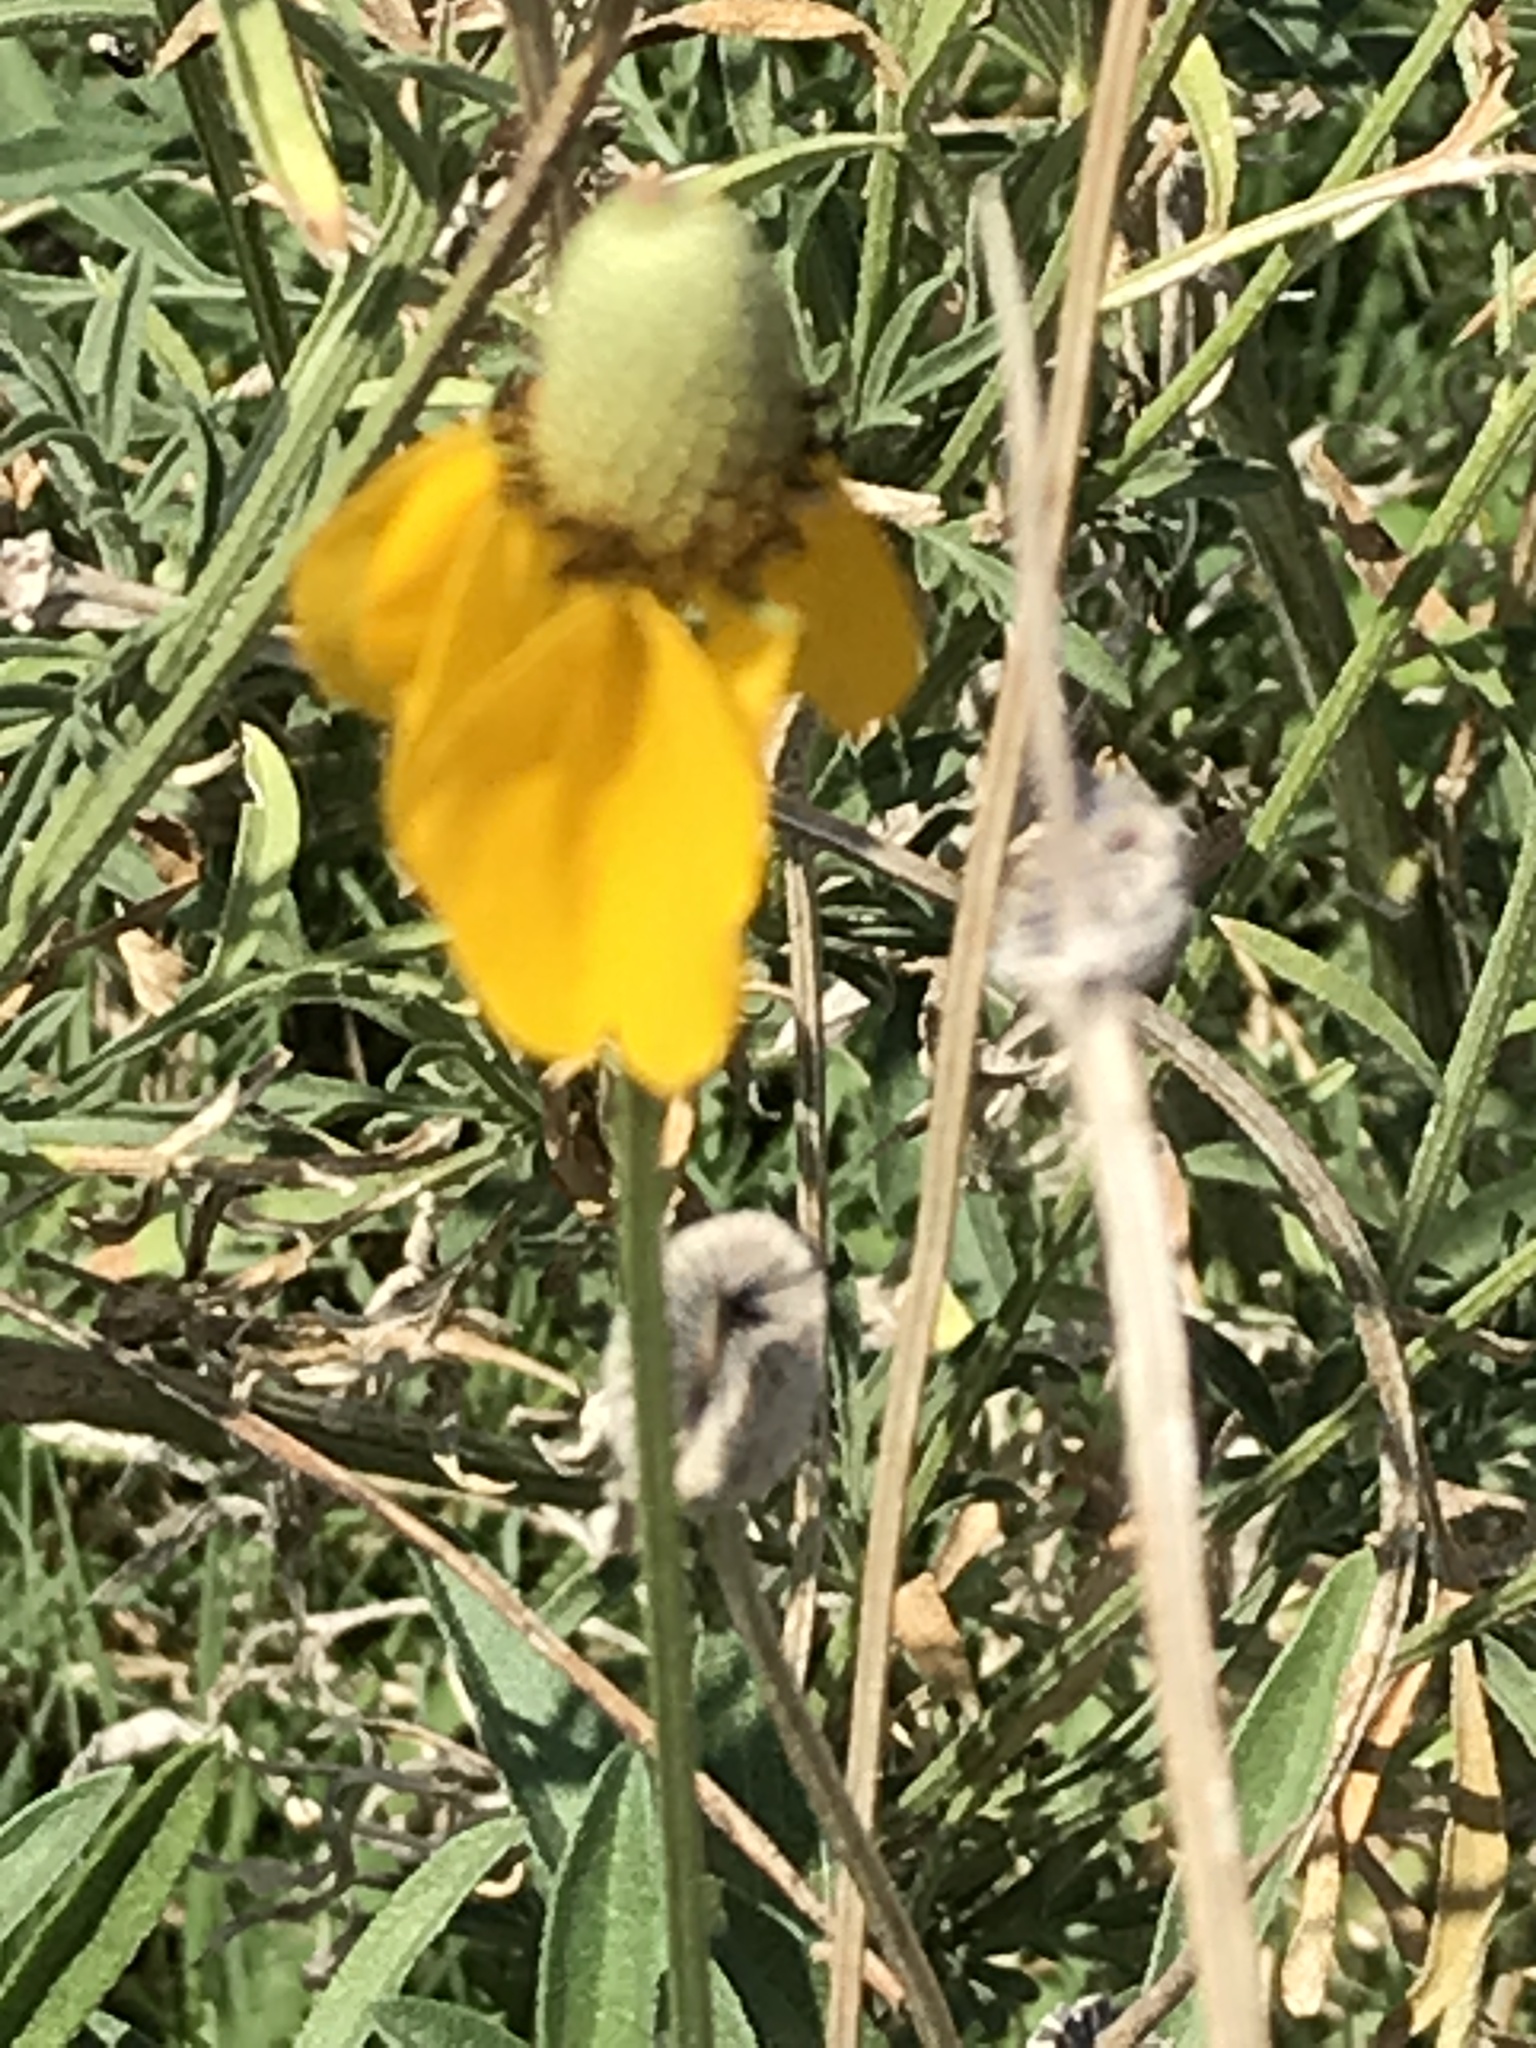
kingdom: Plantae
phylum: Tracheophyta
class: Magnoliopsida
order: Asterales
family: Asteraceae
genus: Ratibida
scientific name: Ratibida columnifera
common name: Prairie coneflower
